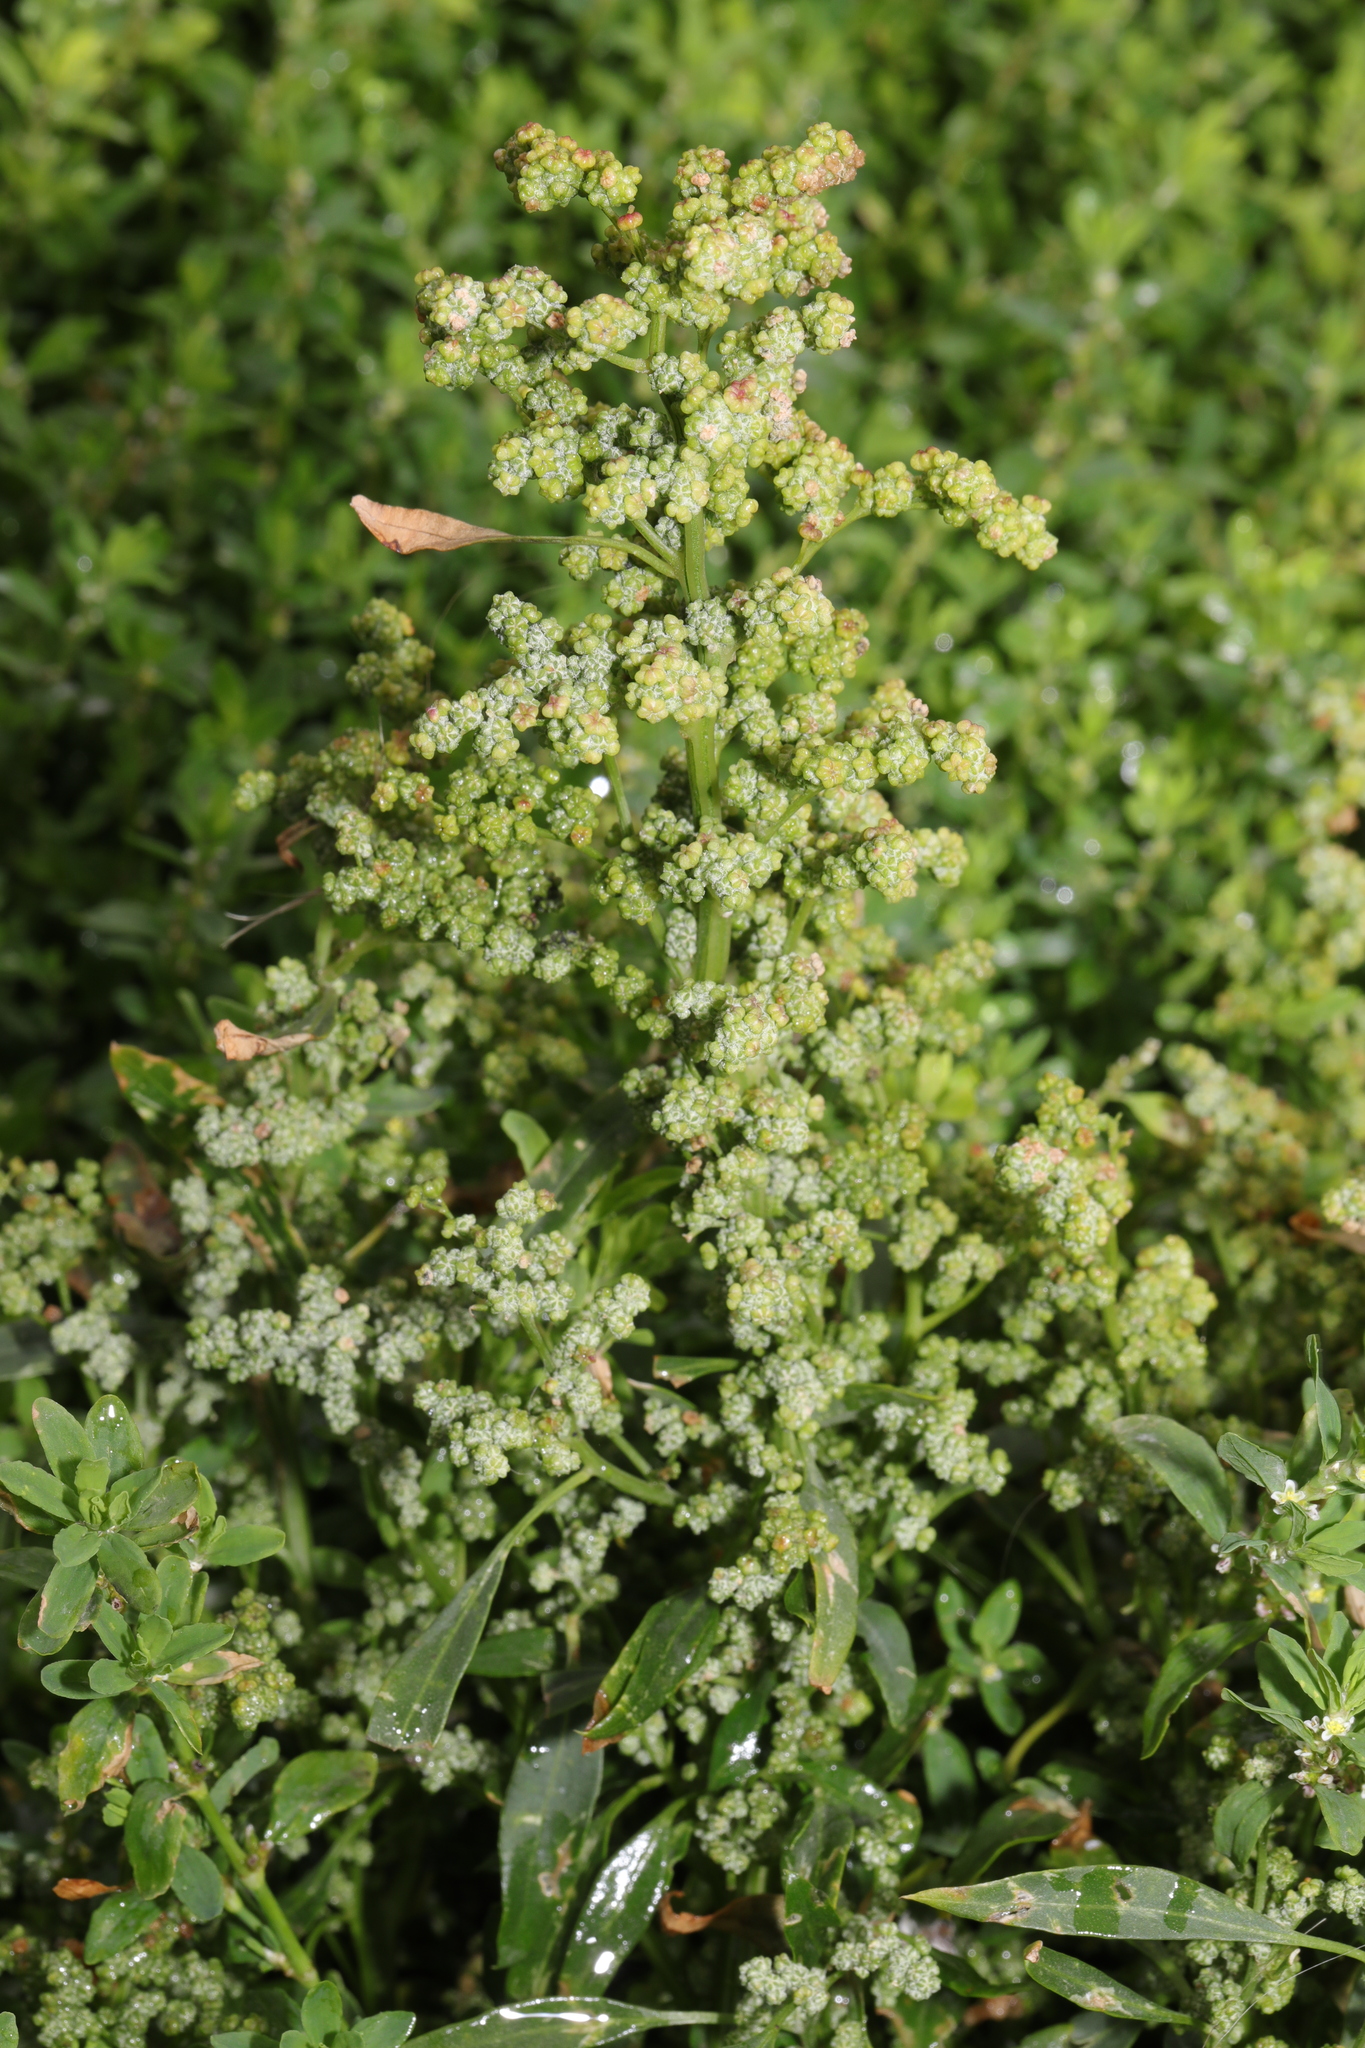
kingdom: Plantae
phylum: Tracheophyta
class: Magnoliopsida
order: Caryophyllales
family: Amaranthaceae
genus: Chenopodium
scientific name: Chenopodium album
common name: Fat-hen
